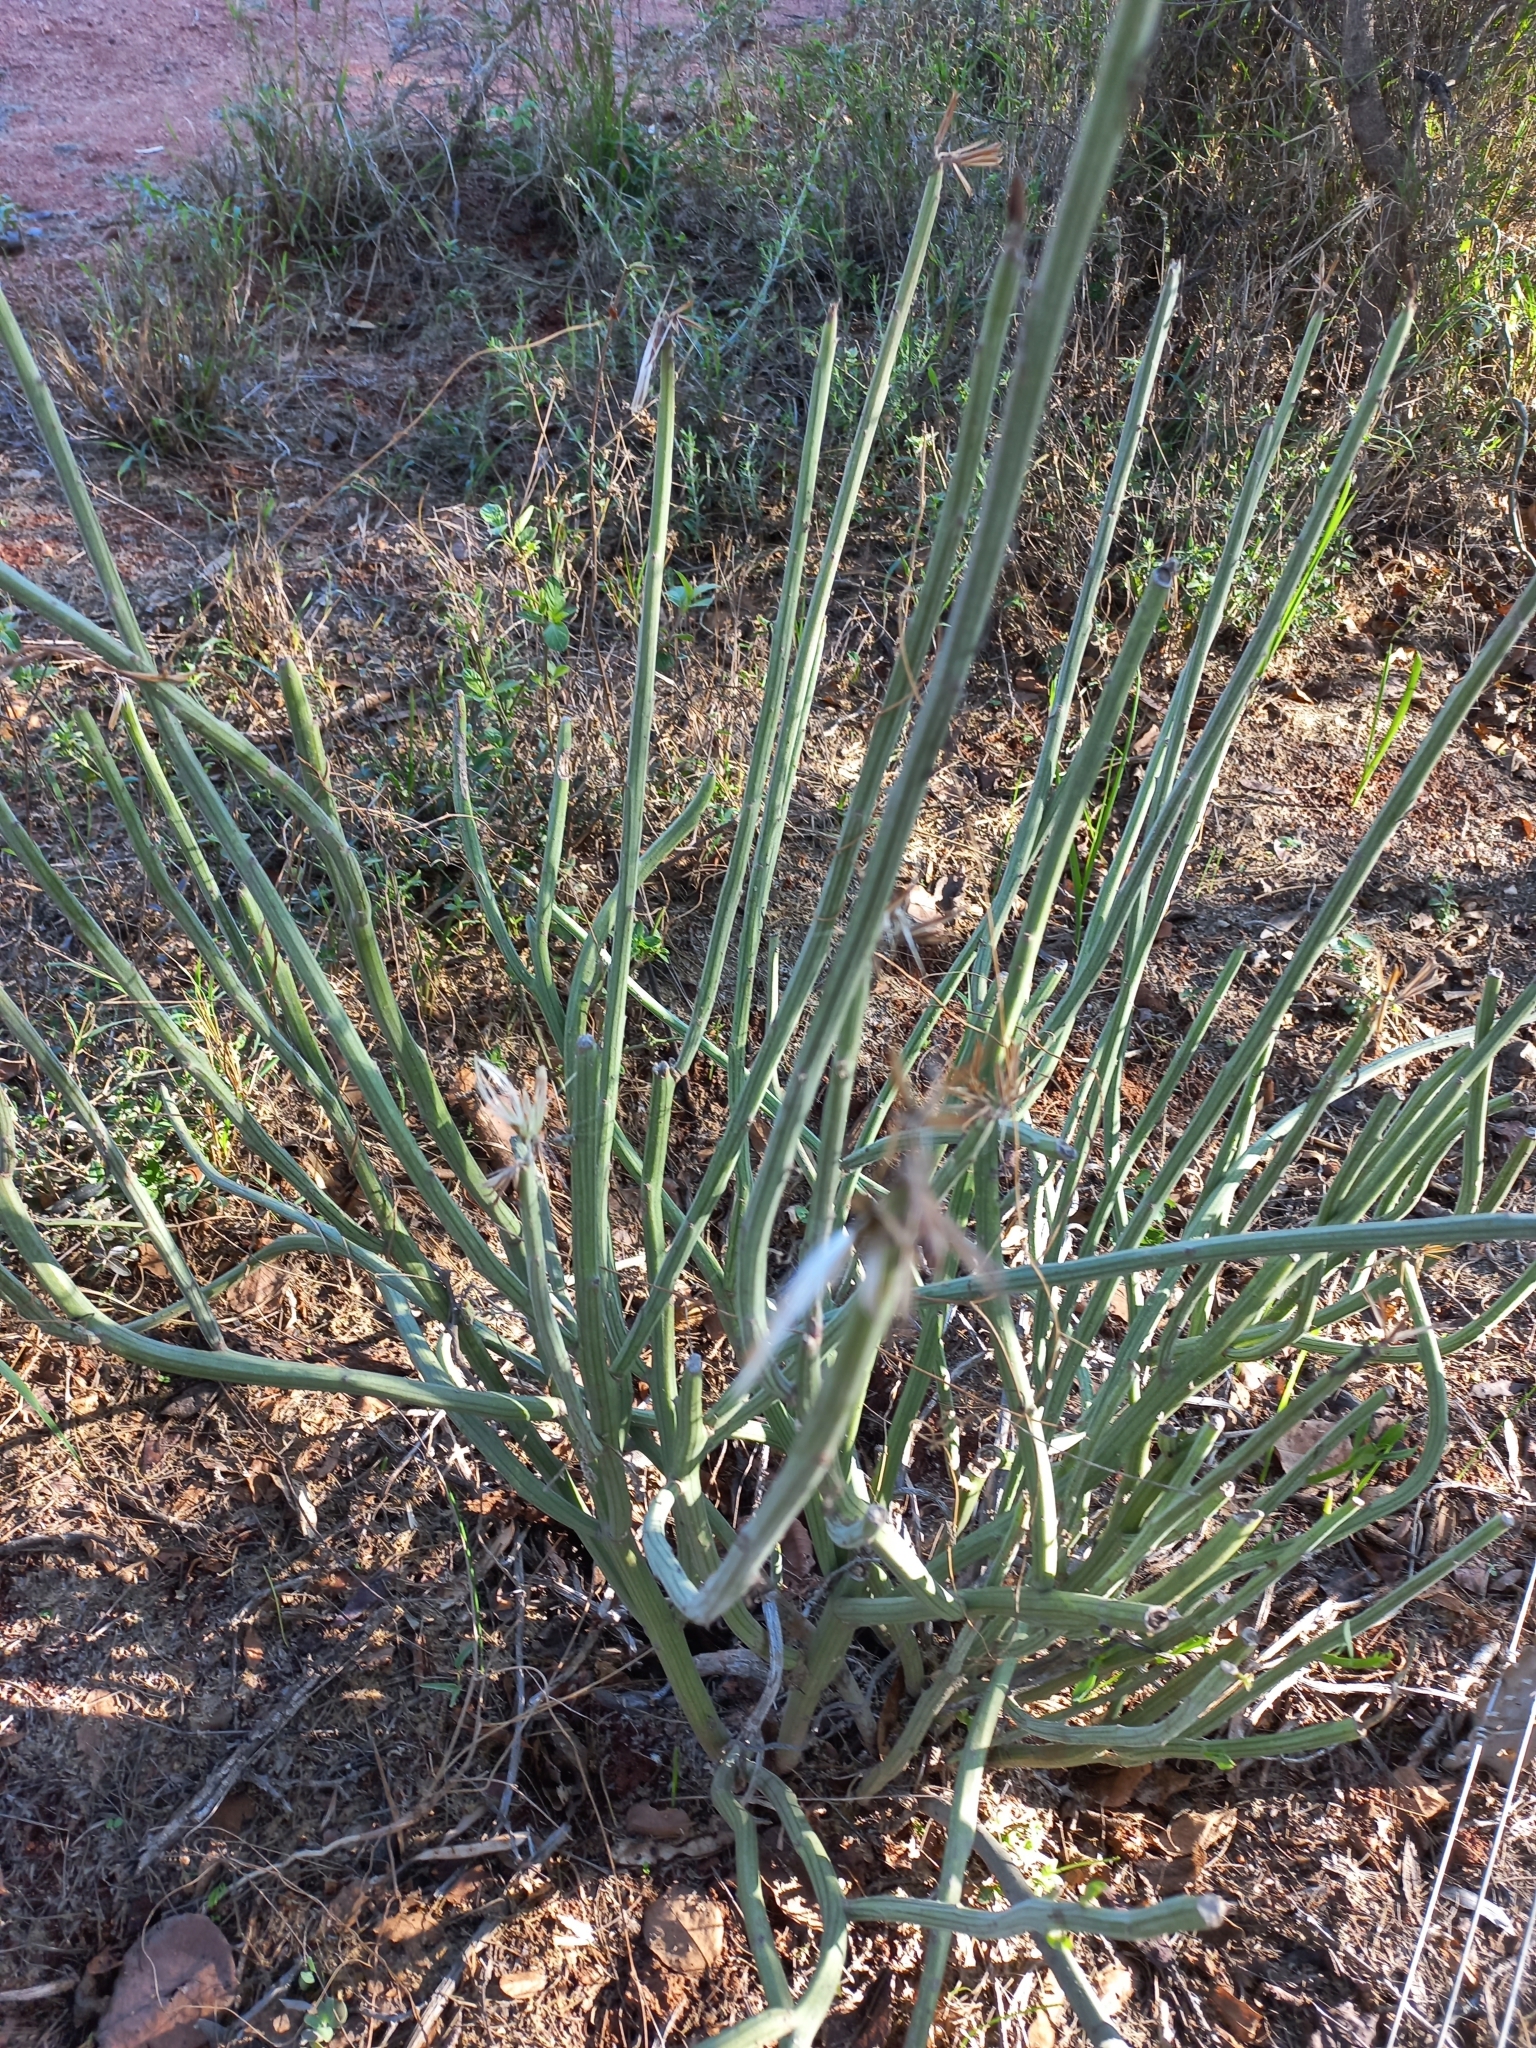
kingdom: Plantae
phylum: Tracheophyta
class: Magnoliopsida
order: Asterales
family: Asteraceae
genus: Curio
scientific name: Curio avasimontanus
